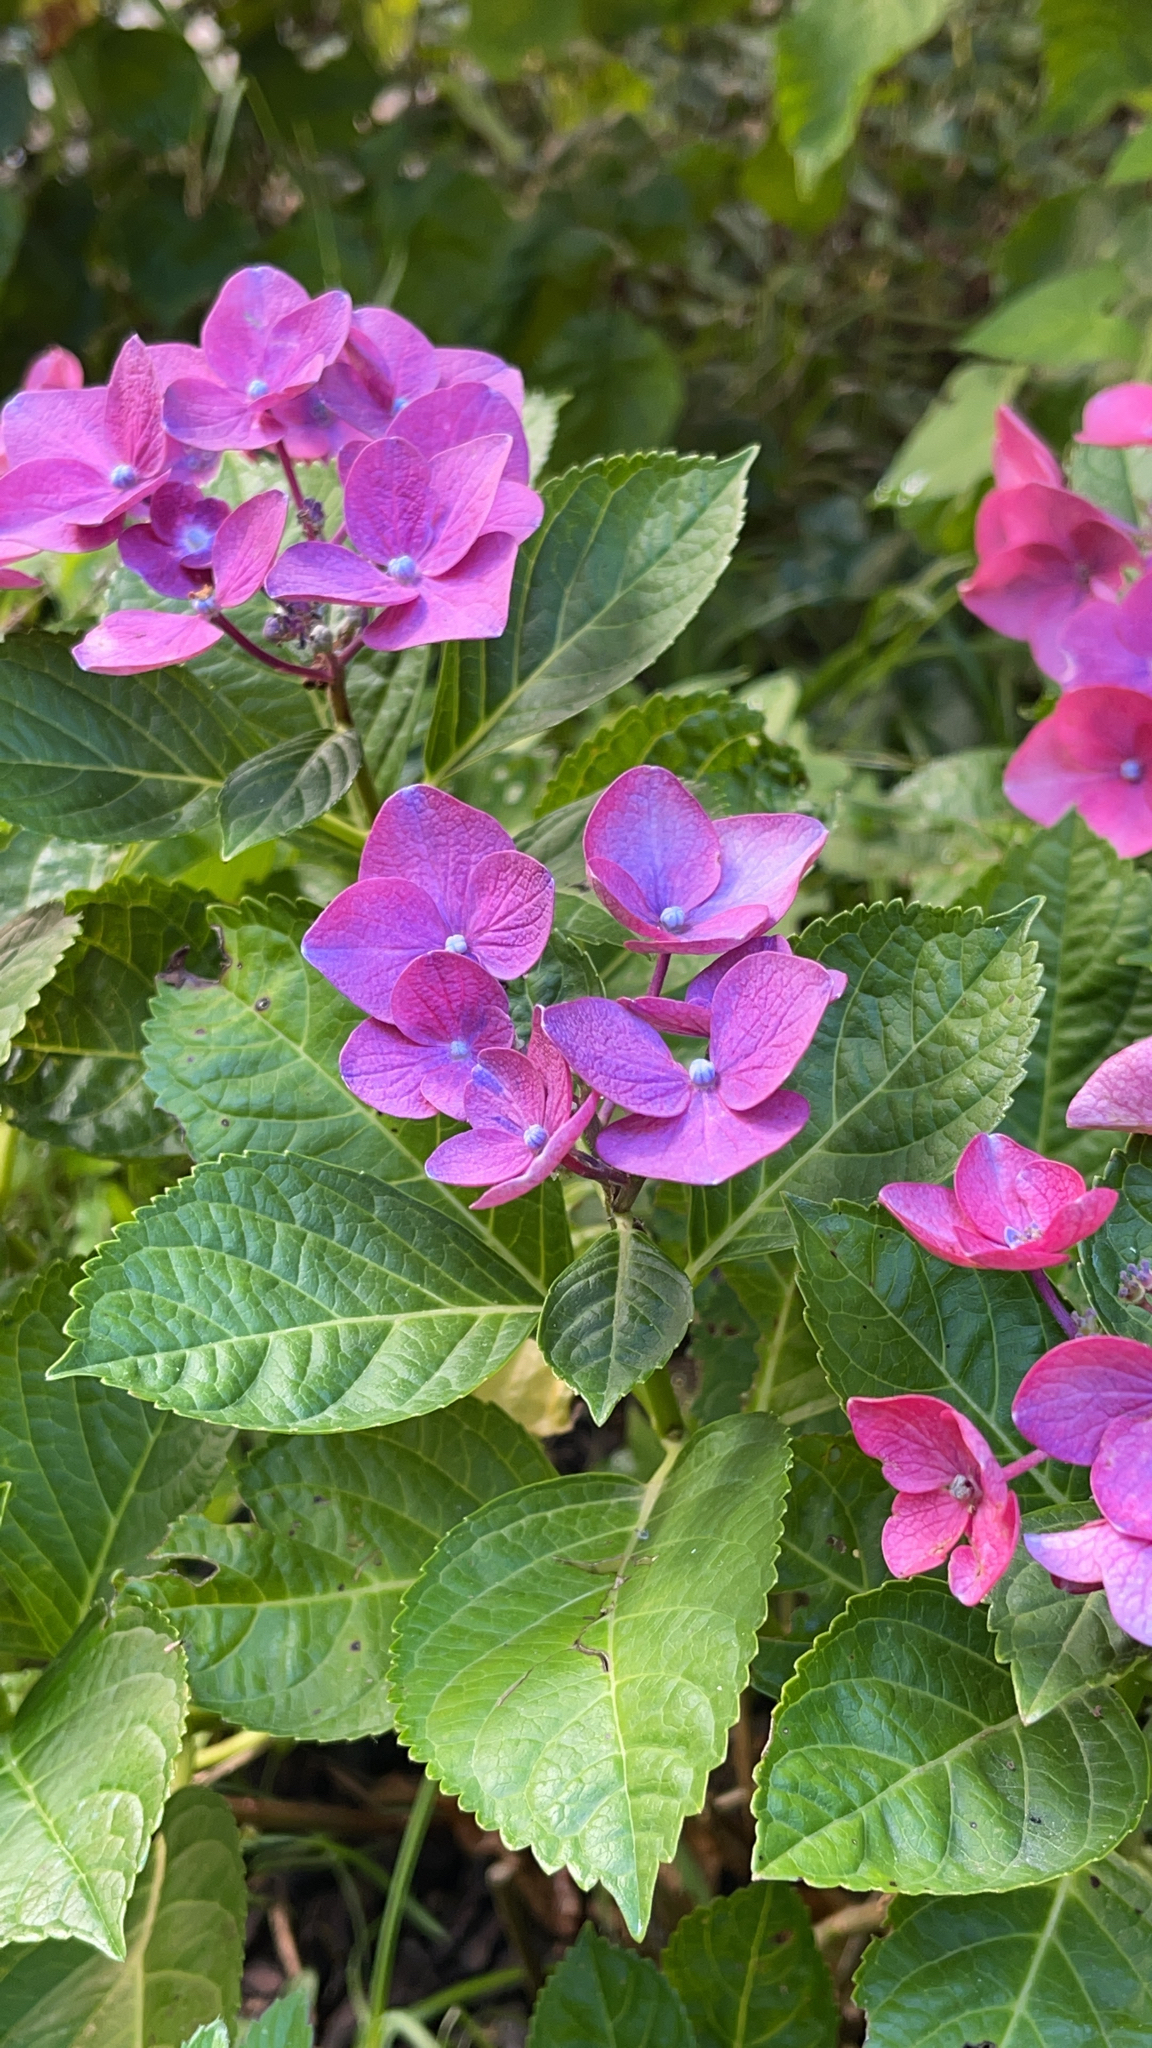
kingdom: Plantae
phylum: Tracheophyta
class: Magnoliopsida
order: Cornales
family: Hydrangeaceae
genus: Hydrangea
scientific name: Hydrangea macrophylla
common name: Hydrangea
